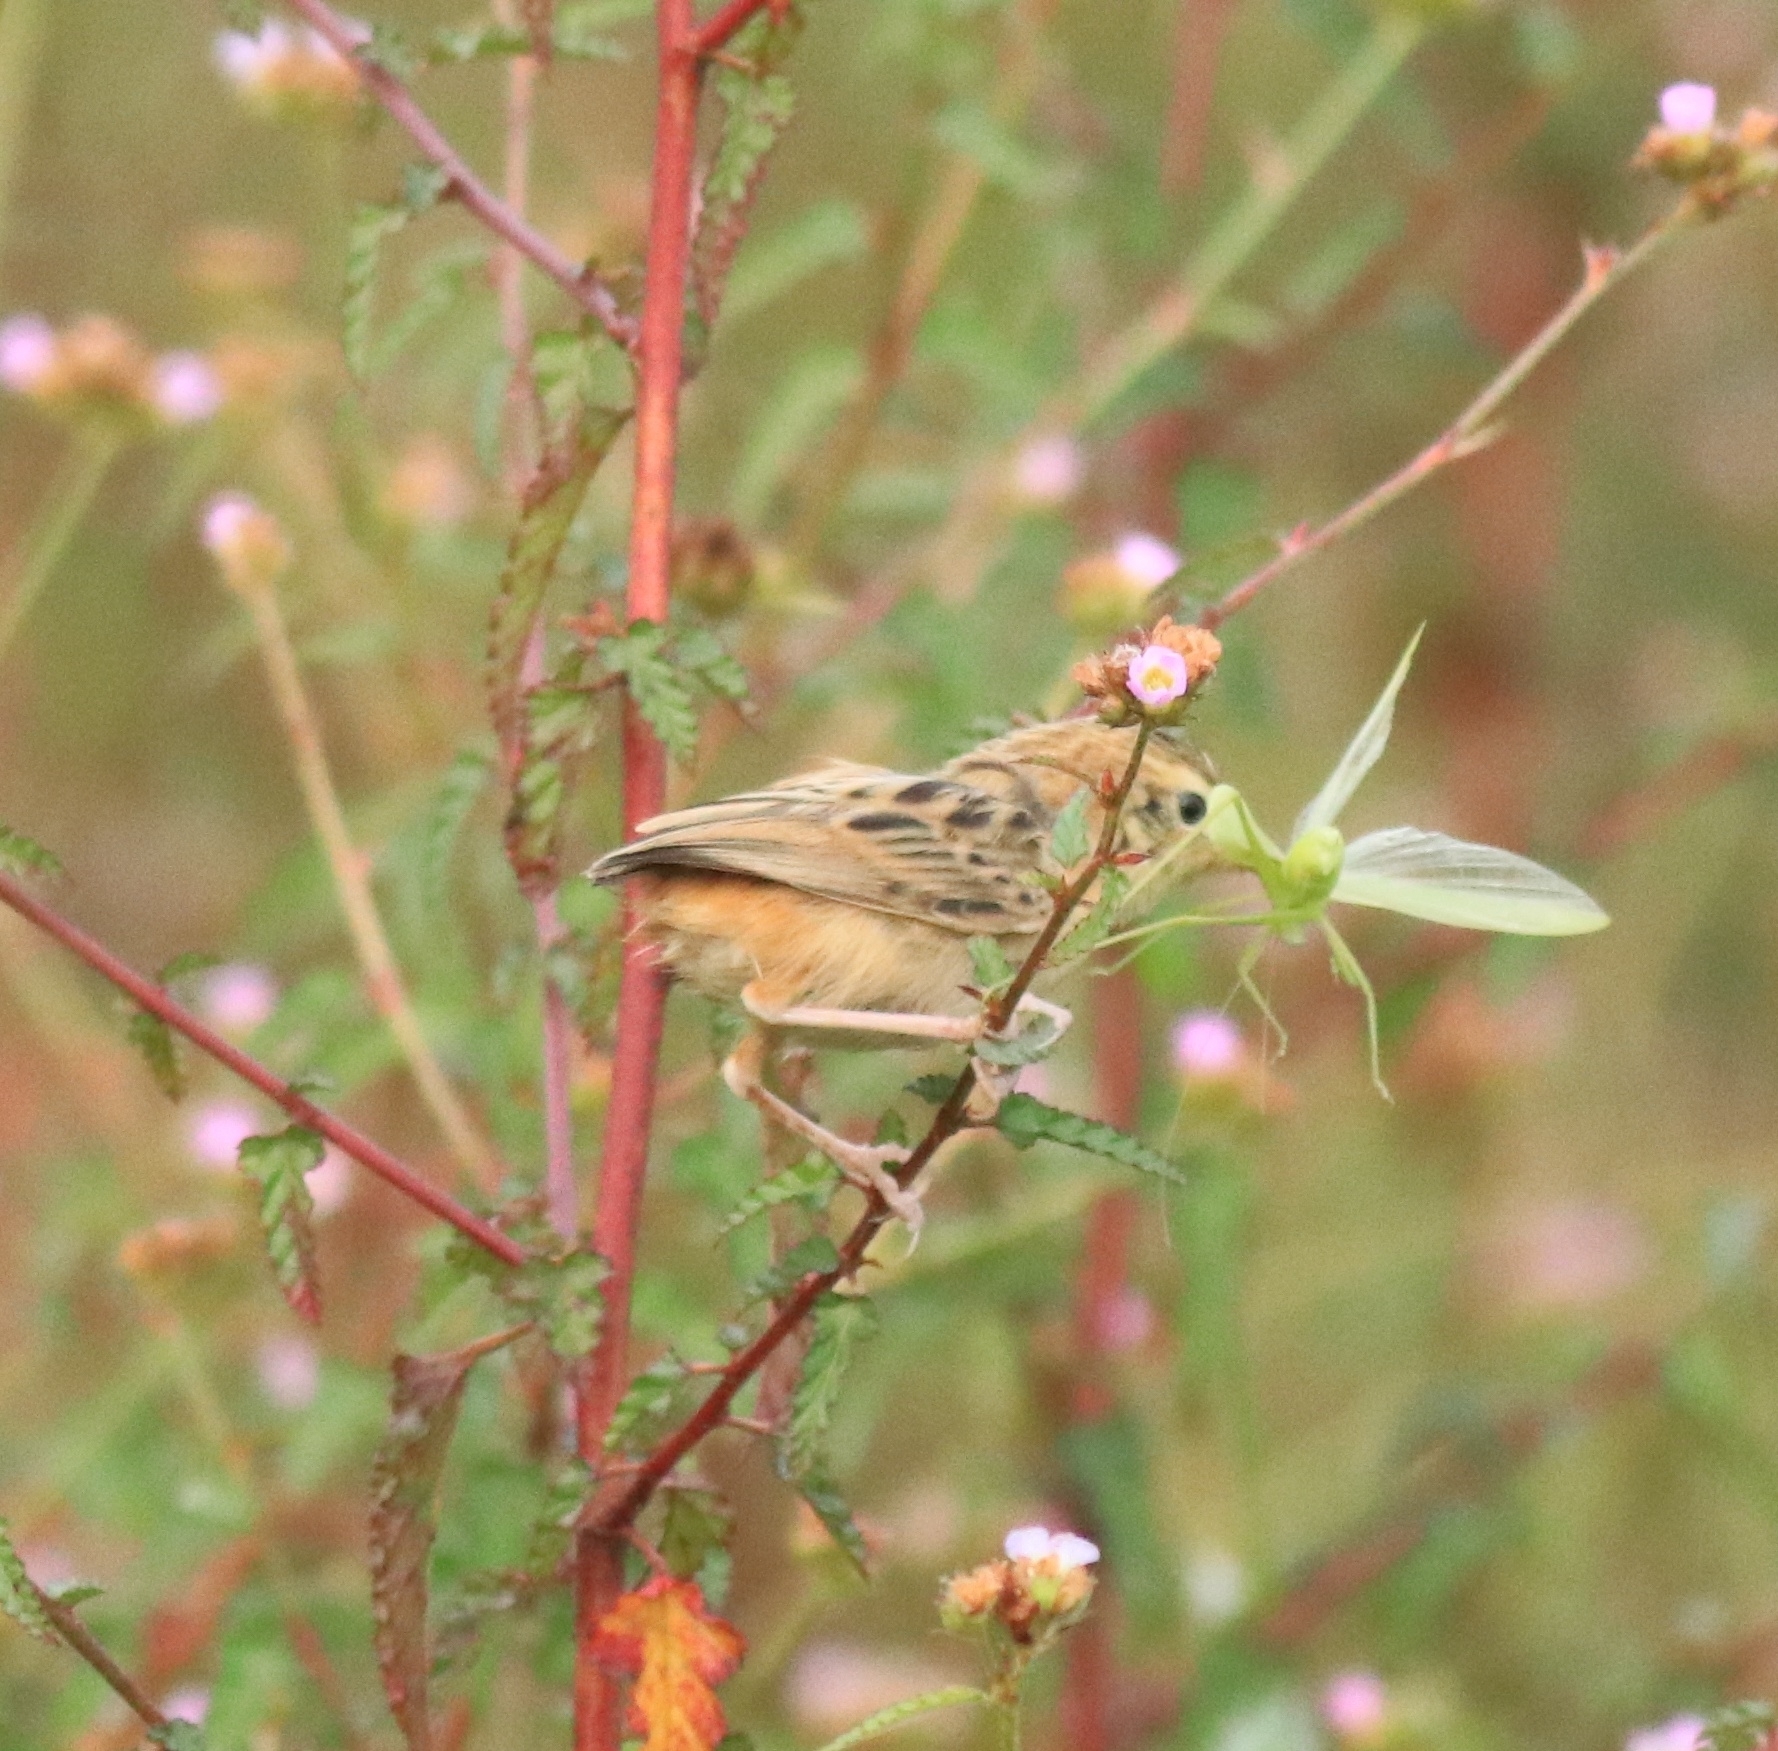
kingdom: Animalia
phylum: Chordata
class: Aves
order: Passeriformes
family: Cisticolidae
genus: Cisticola
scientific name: Cisticola juncidis
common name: Zitting cisticola
